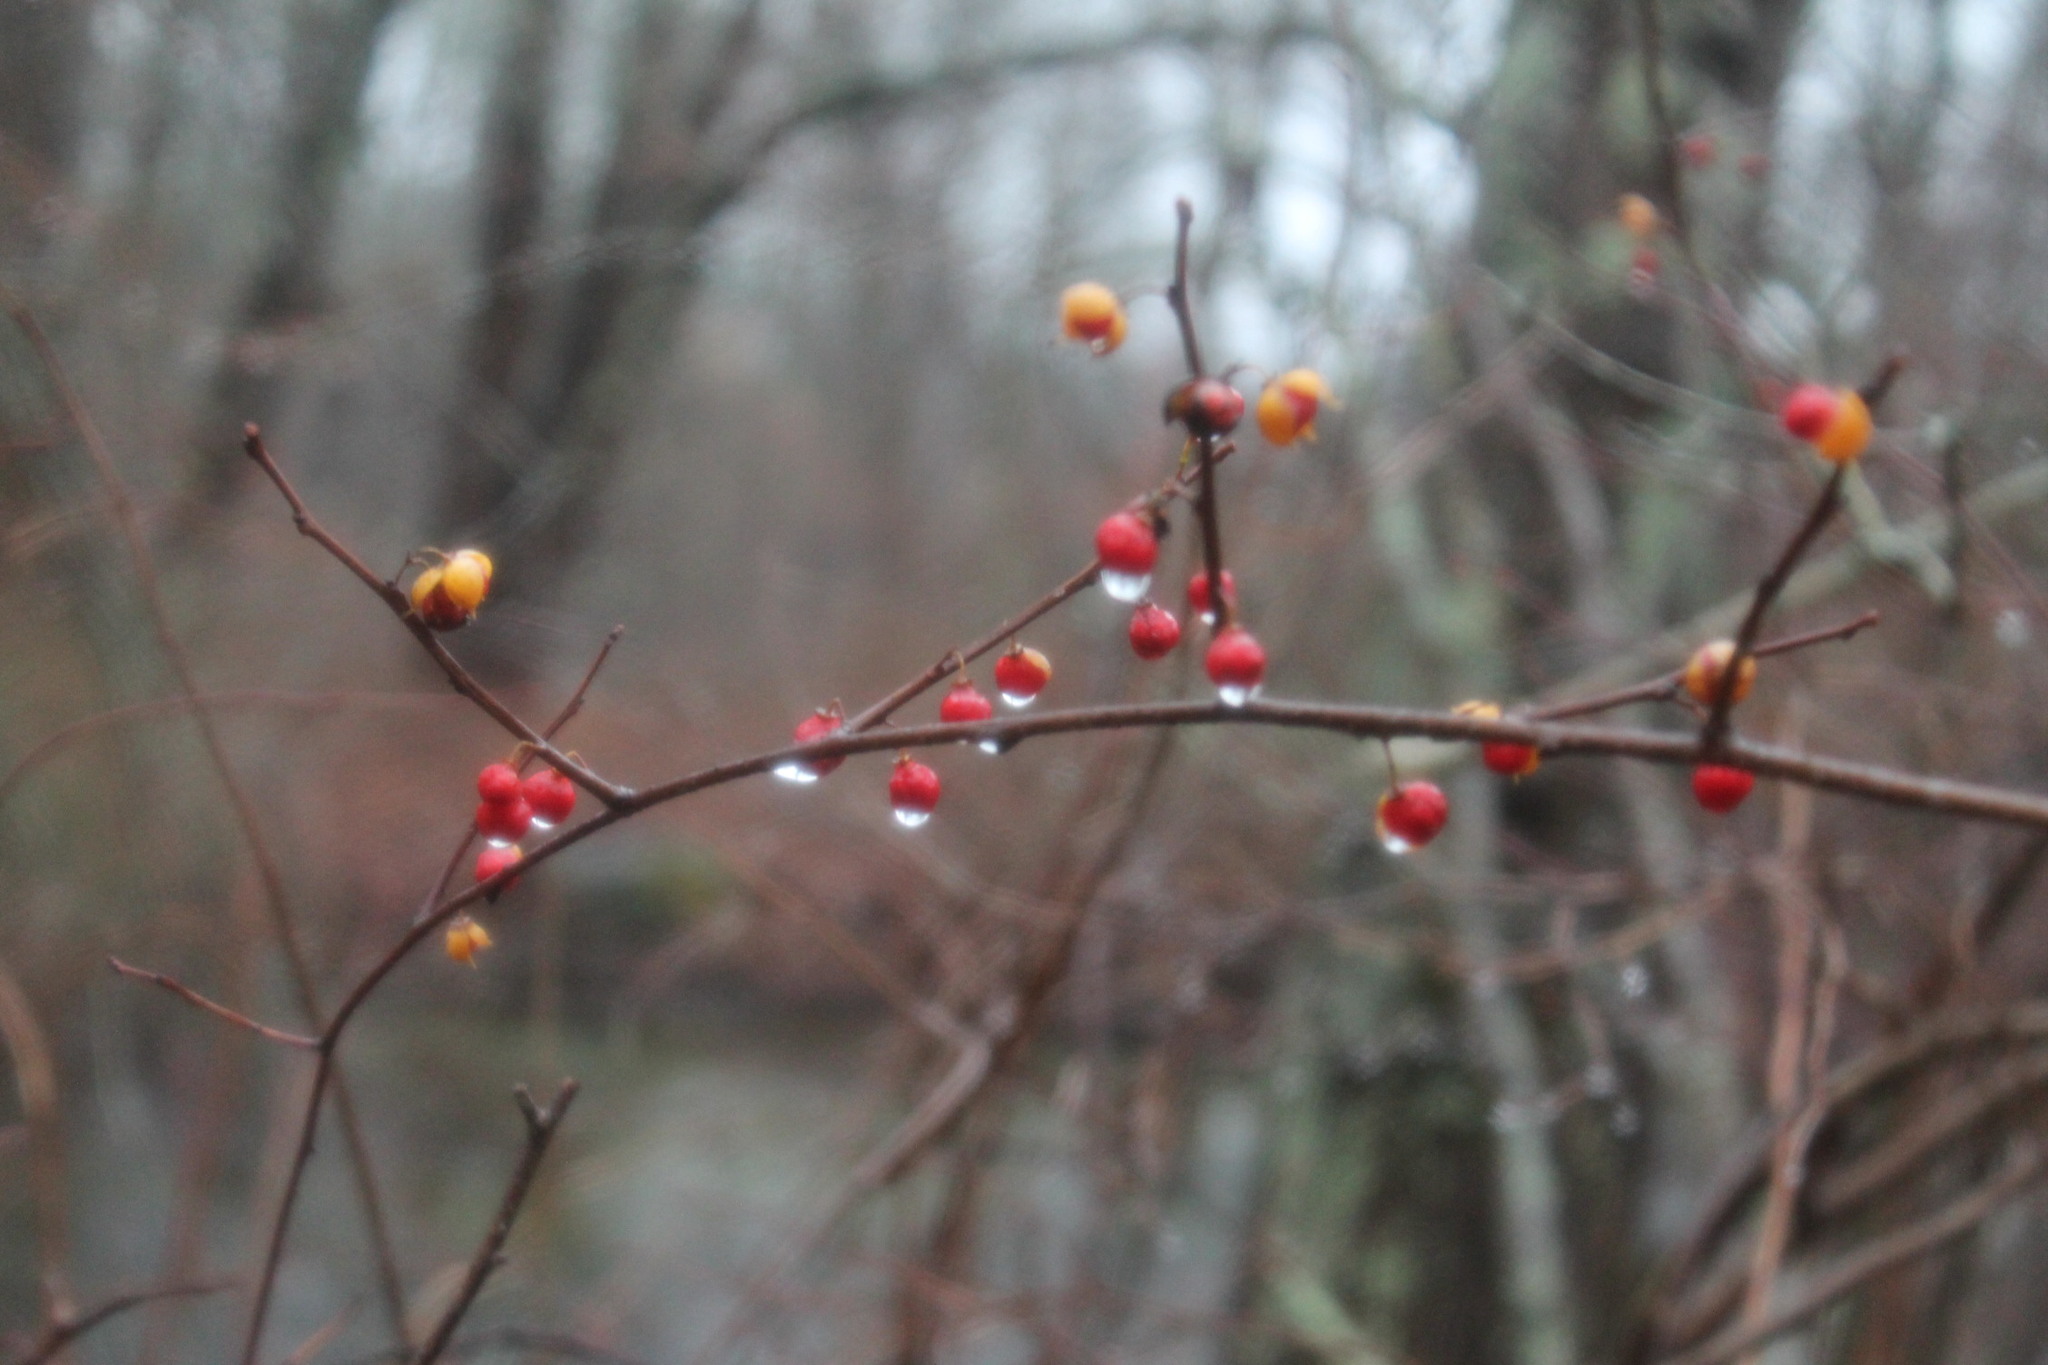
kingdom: Plantae
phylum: Tracheophyta
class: Magnoliopsida
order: Celastrales
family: Celastraceae
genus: Celastrus
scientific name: Celastrus orbiculatus
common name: Oriental bittersweet
